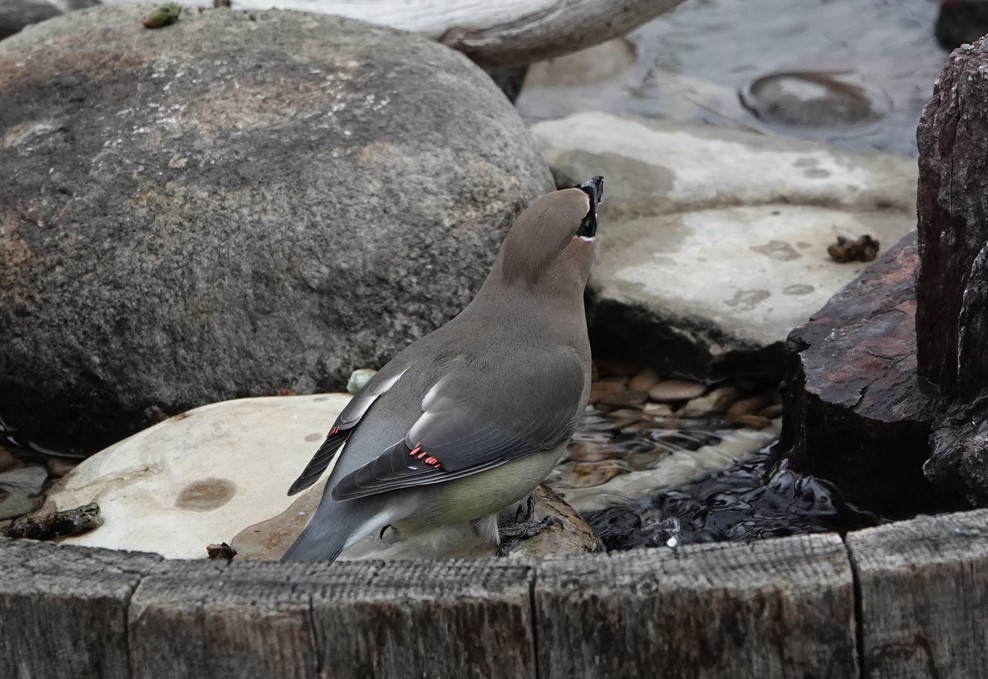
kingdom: Animalia
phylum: Chordata
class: Aves
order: Passeriformes
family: Bombycillidae
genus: Bombycilla
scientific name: Bombycilla cedrorum
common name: Cedar waxwing
